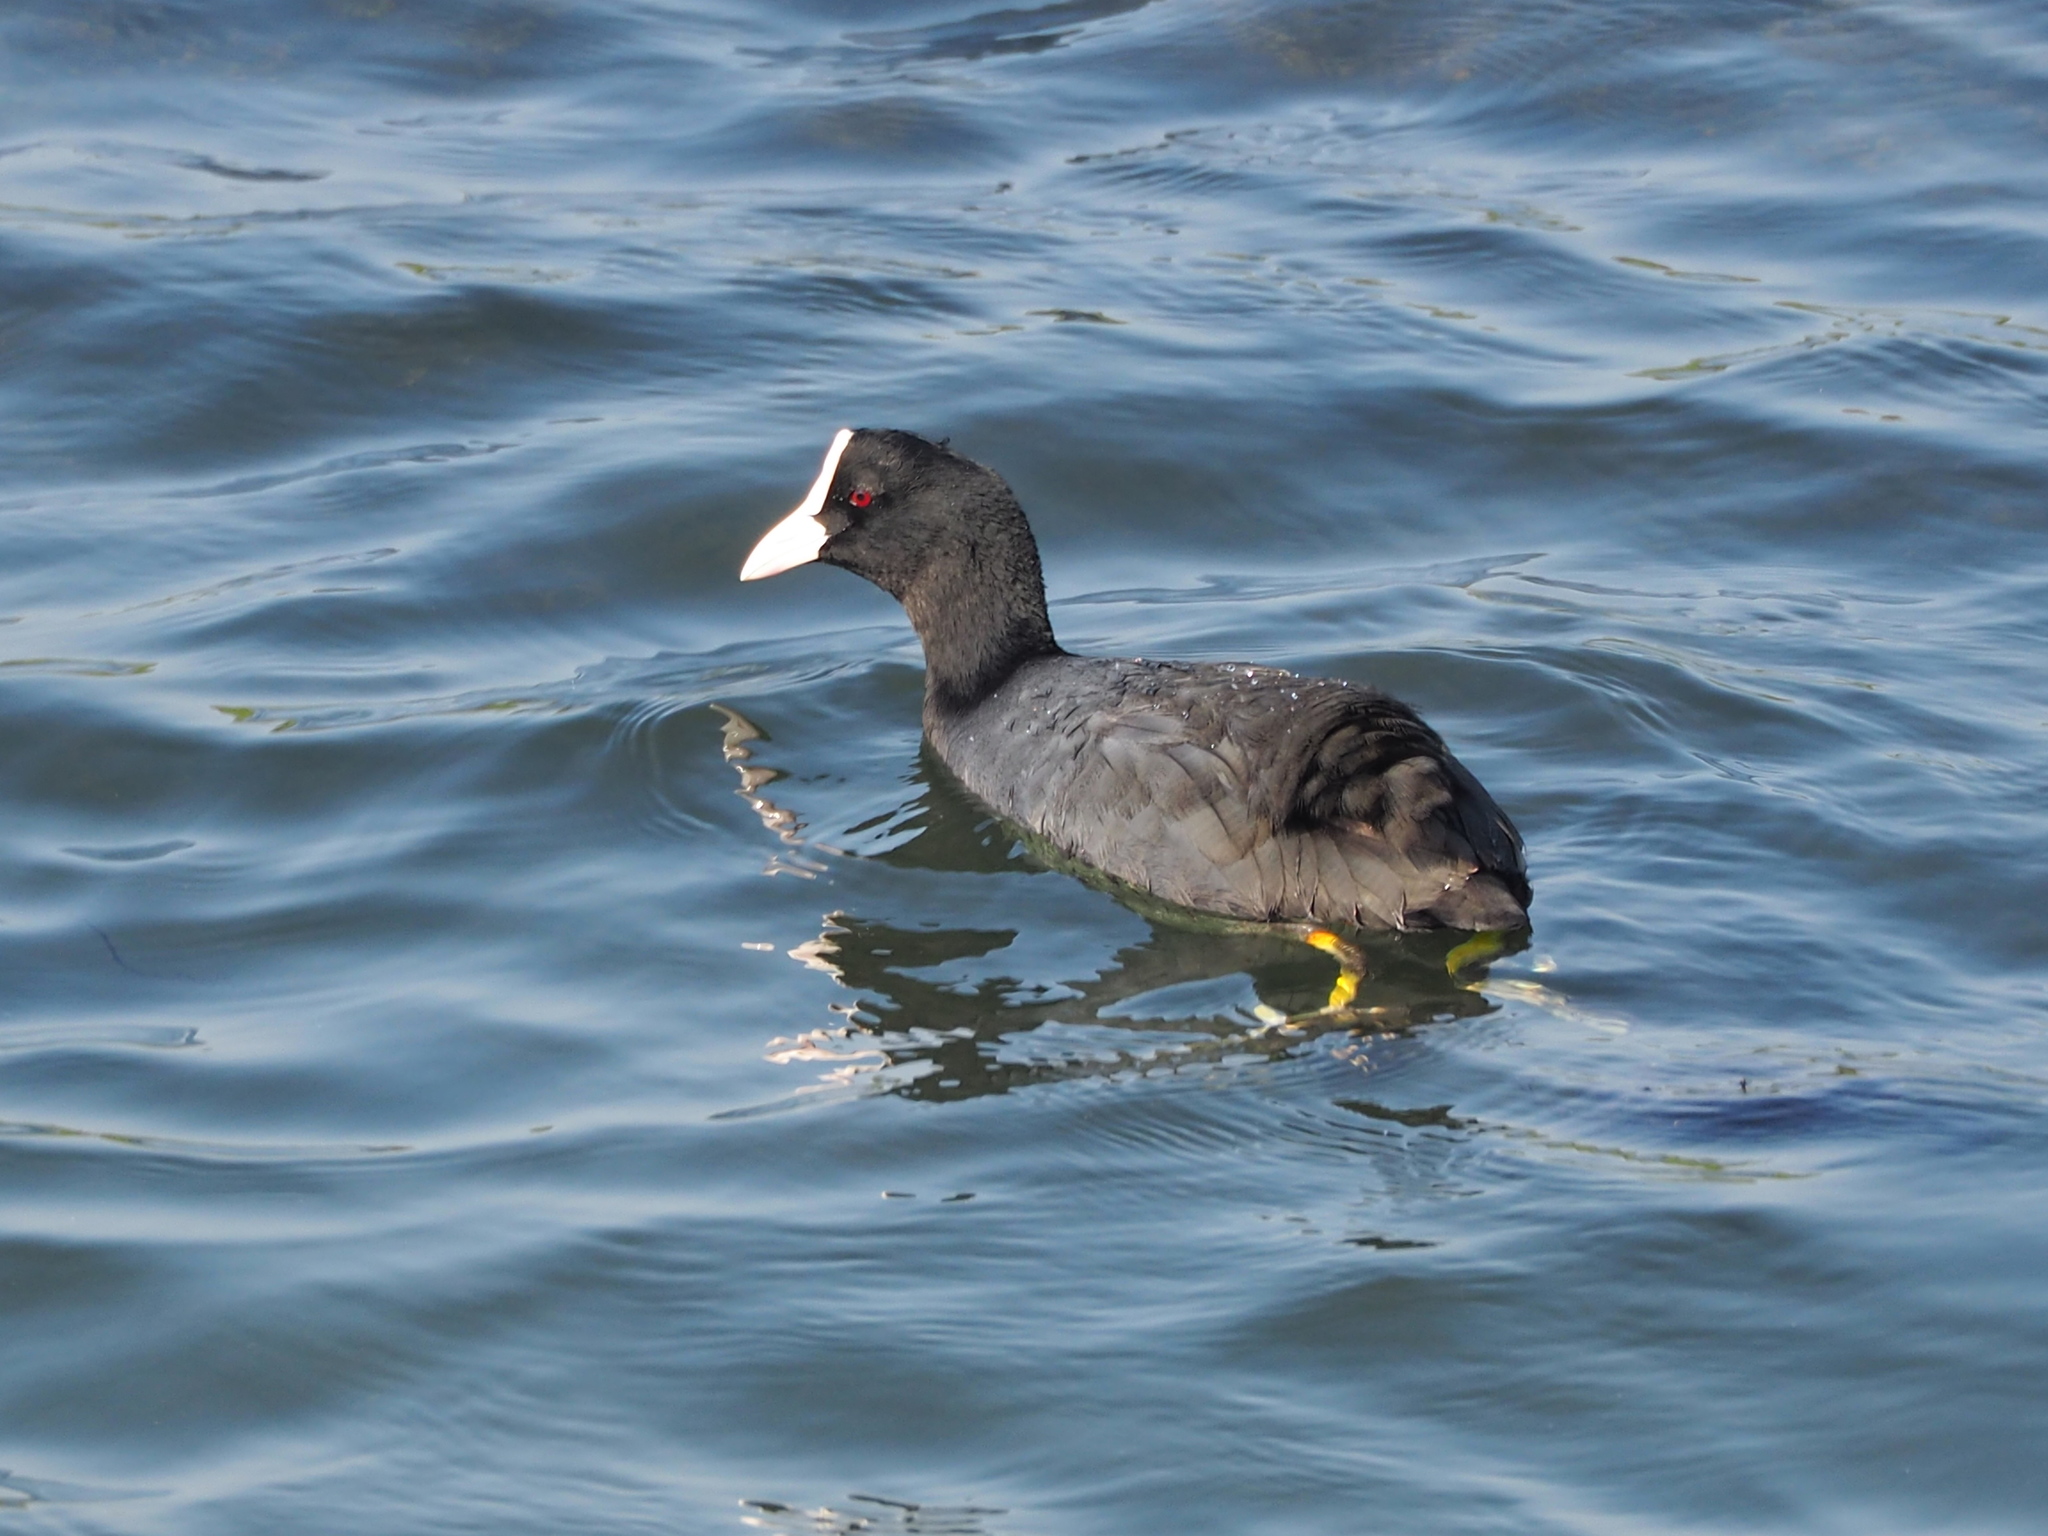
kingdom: Animalia
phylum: Chordata
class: Aves
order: Gruiformes
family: Rallidae
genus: Fulica
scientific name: Fulica atra
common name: Eurasian coot
